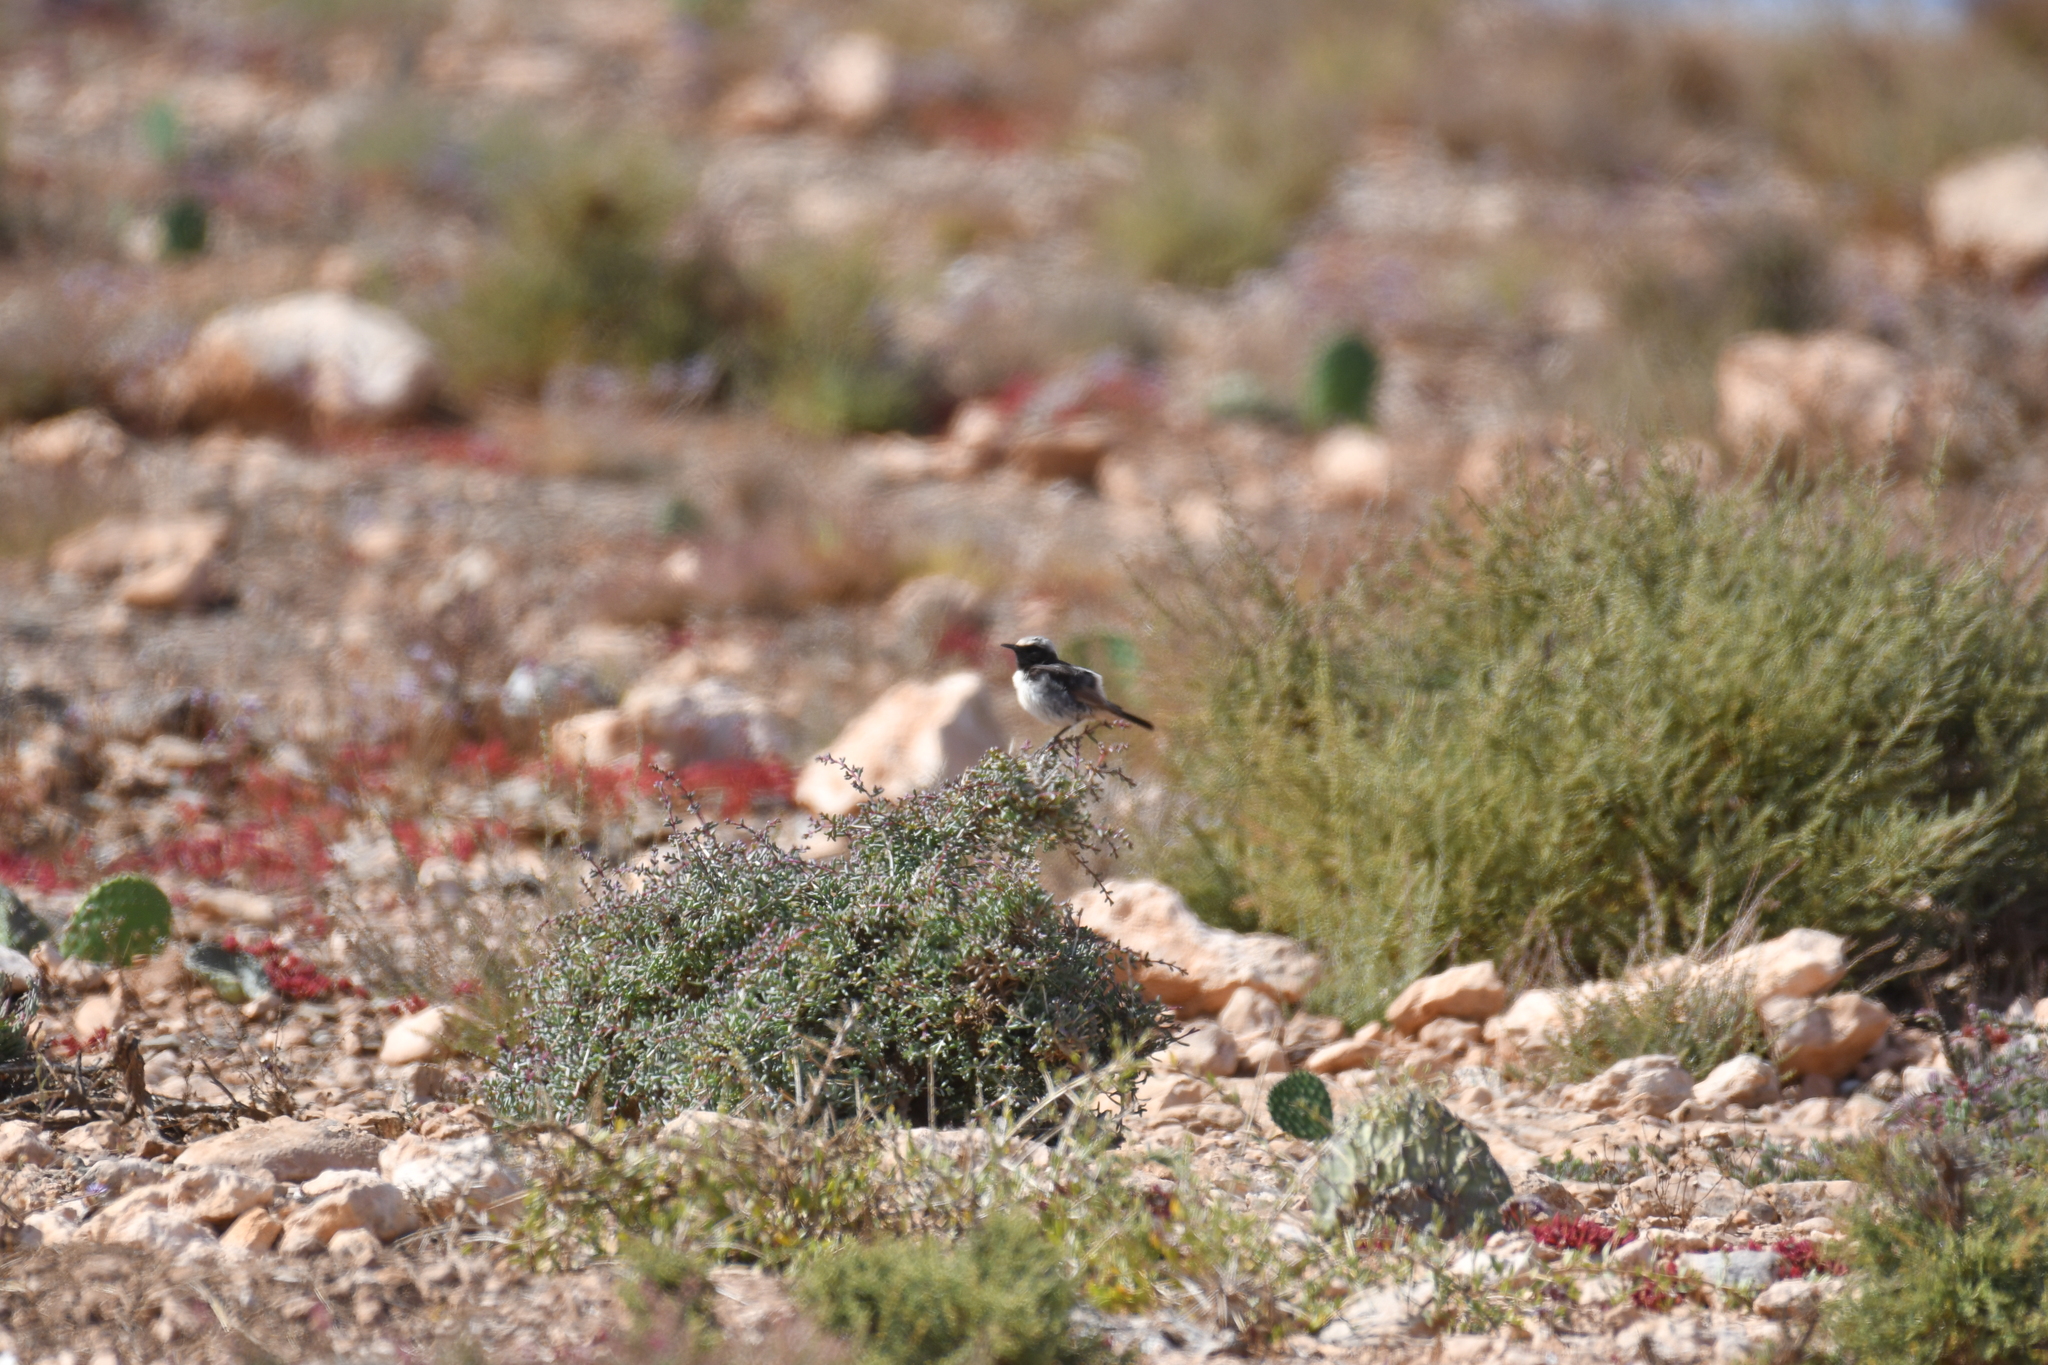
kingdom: Animalia
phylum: Chordata
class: Aves
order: Passeriformes
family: Muscicapidae
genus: Oenanthe
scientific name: Oenanthe moesta
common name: Red-rumped wheatear
